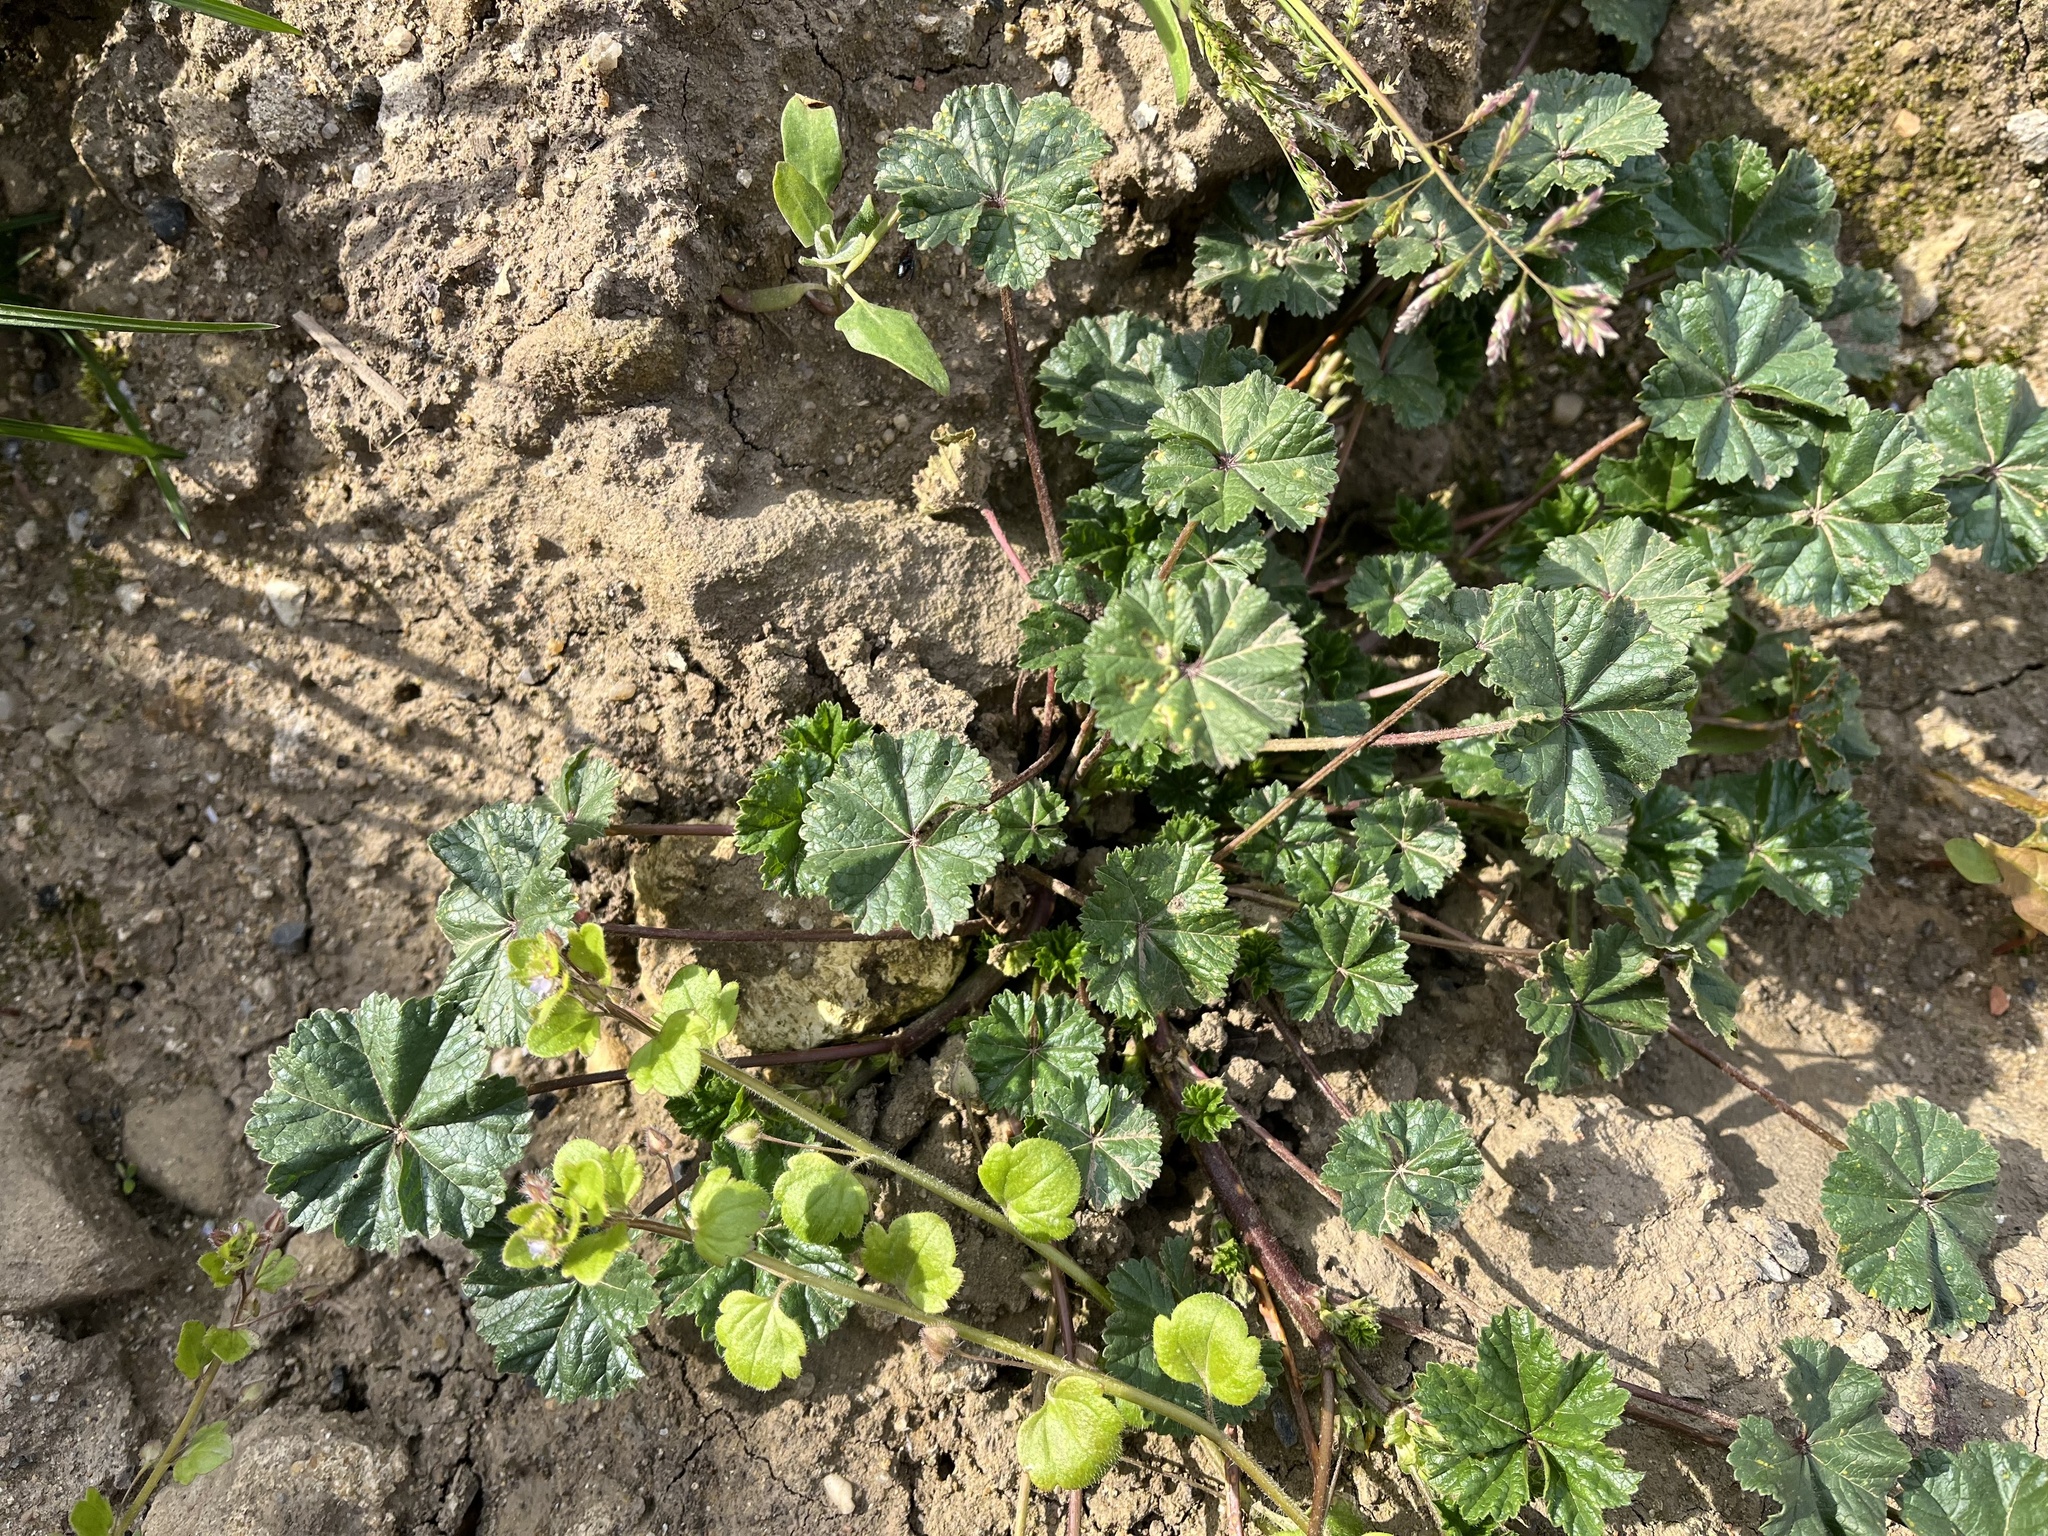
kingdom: Plantae
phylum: Tracheophyta
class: Magnoliopsida
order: Malvales
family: Malvaceae
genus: Malva
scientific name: Malva neglecta
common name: Common mallow
